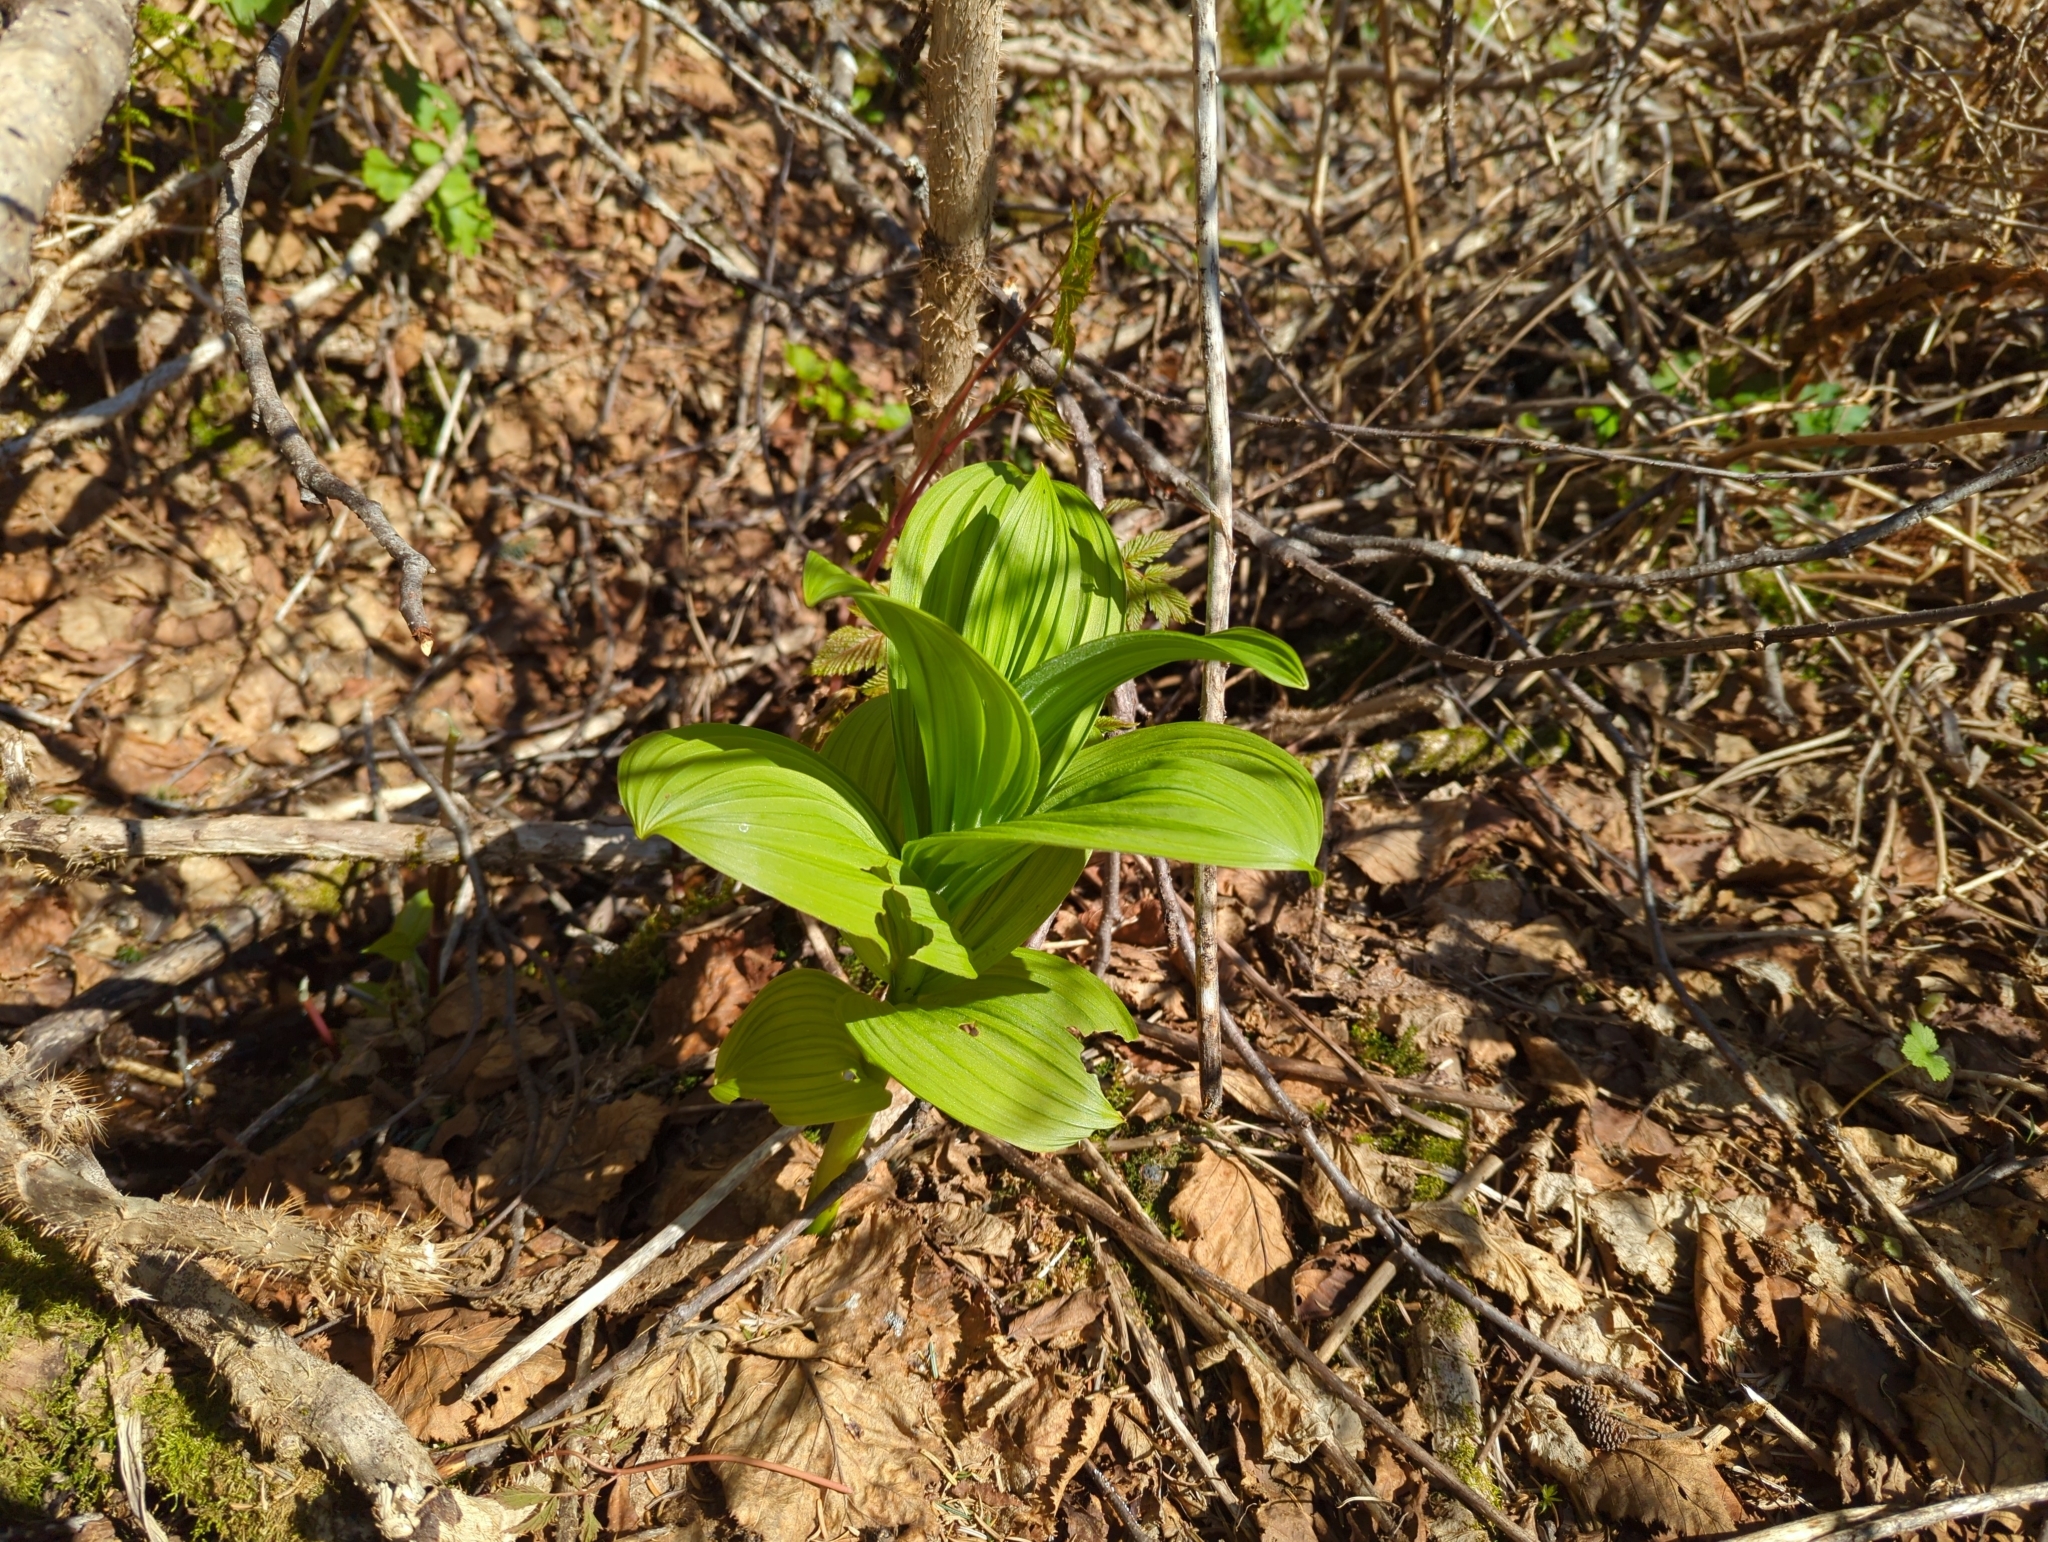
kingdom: Plantae
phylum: Tracheophyta
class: Liliopsida
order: Liliales
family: Melanthiaceae
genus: Veratrum
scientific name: Veratrum viride
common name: American false hellebore
